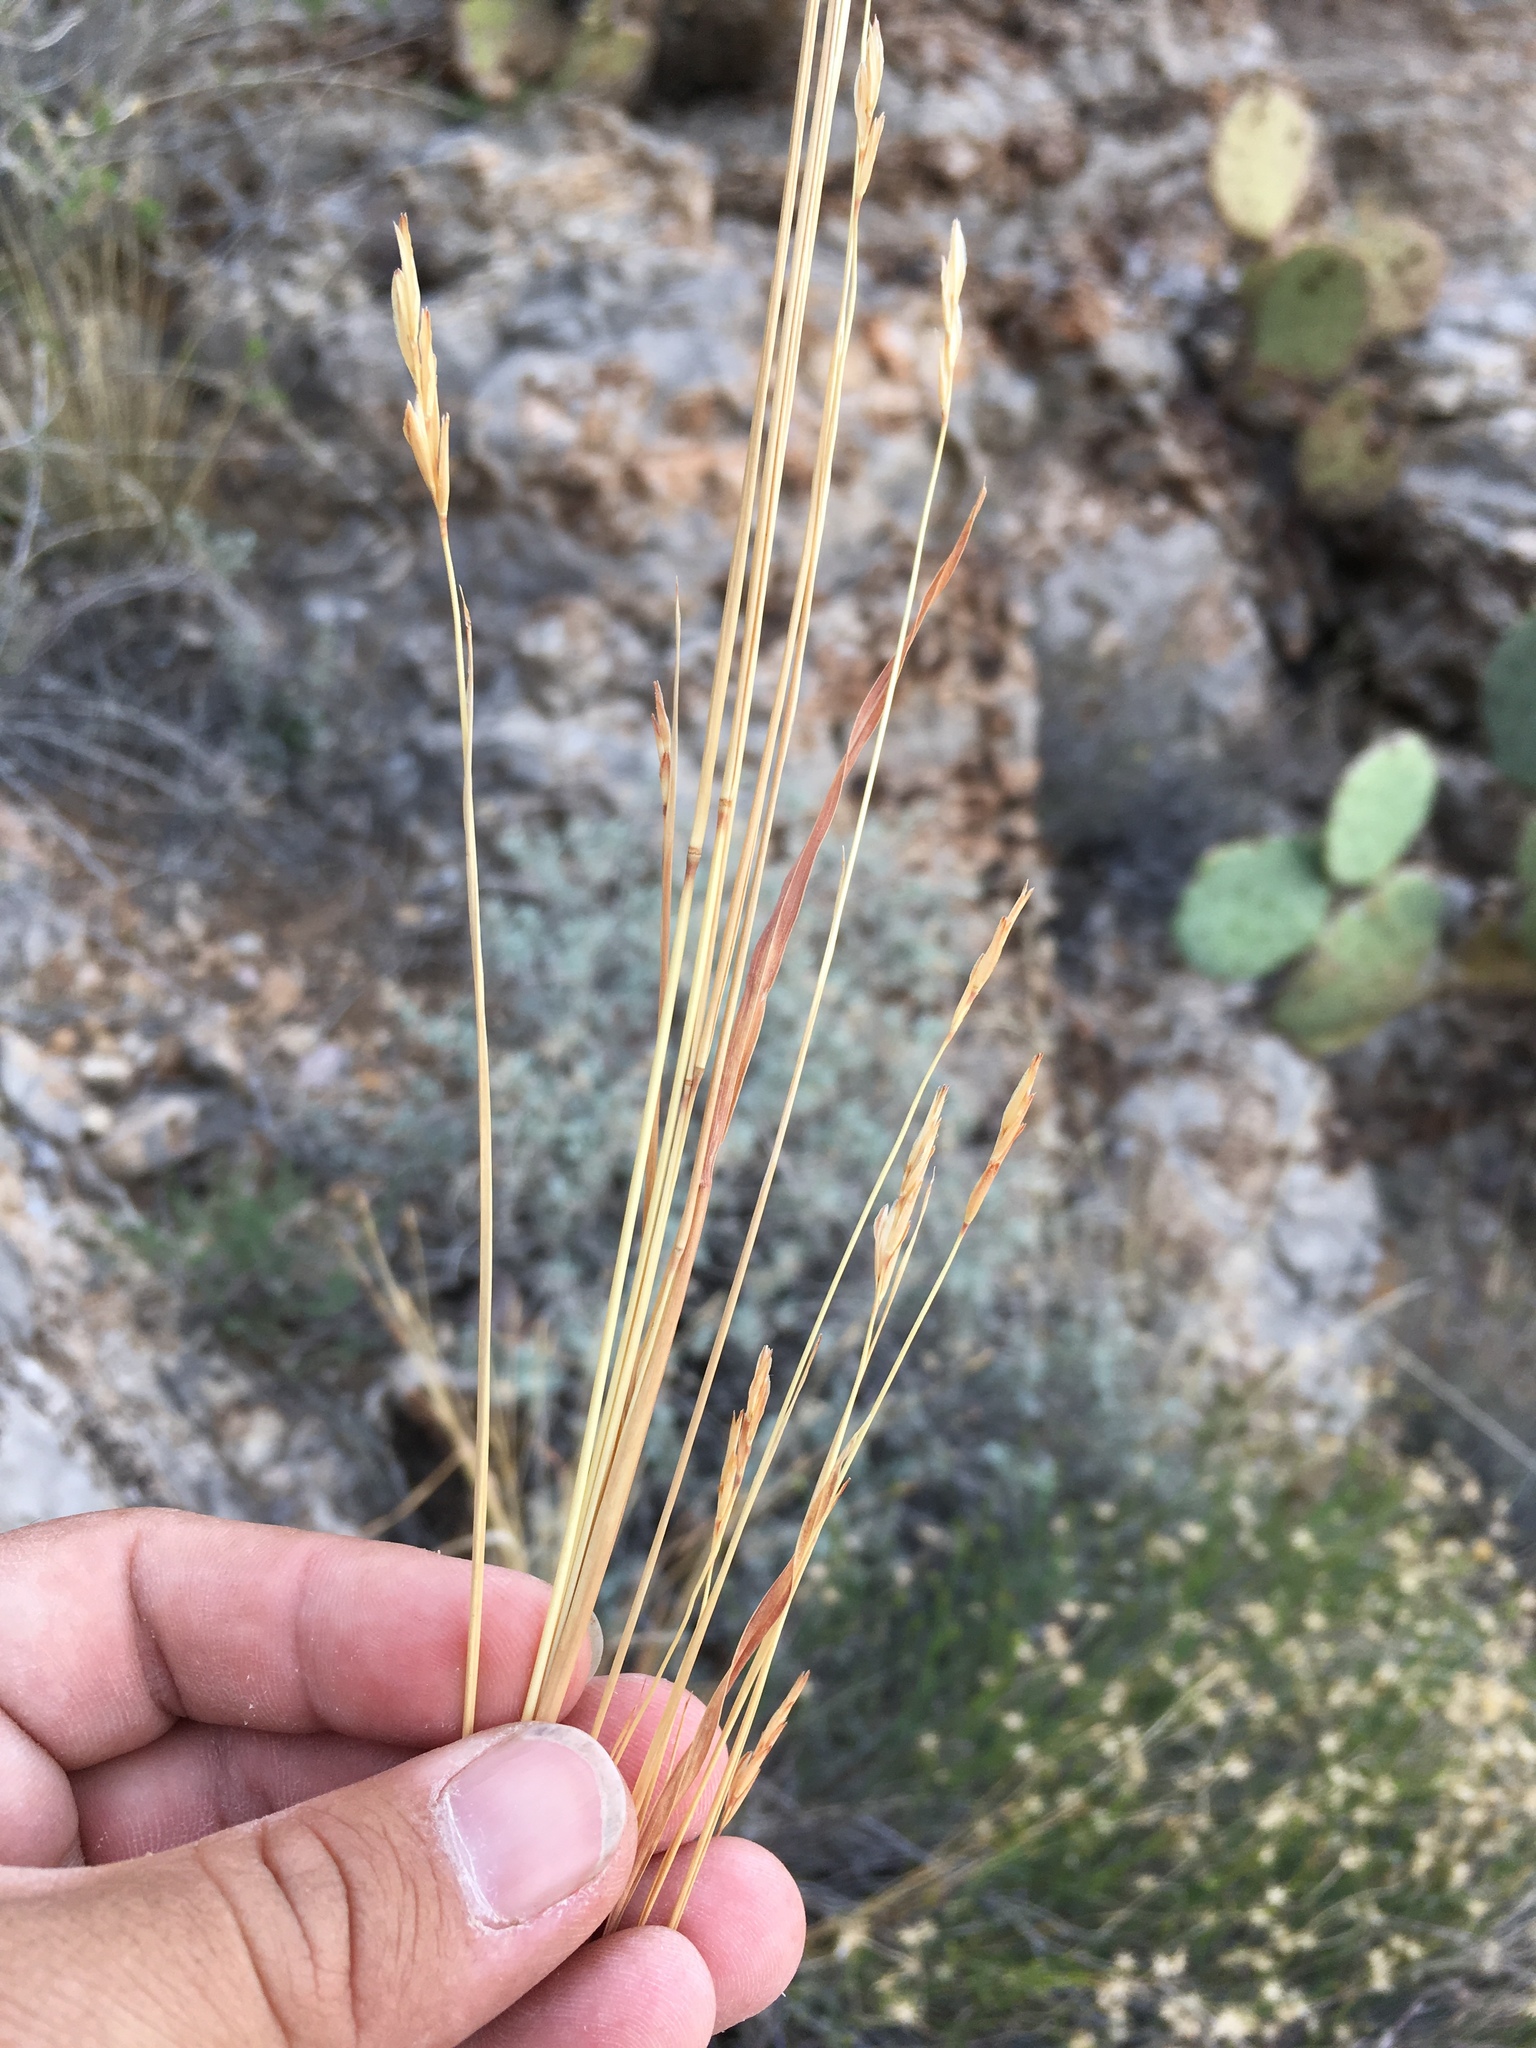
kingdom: Plantae
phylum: Tracheophyta
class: Liliopsida
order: Poales
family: Poaceae
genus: Heteropogon
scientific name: Heteropogon contortus
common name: Tanglehead
